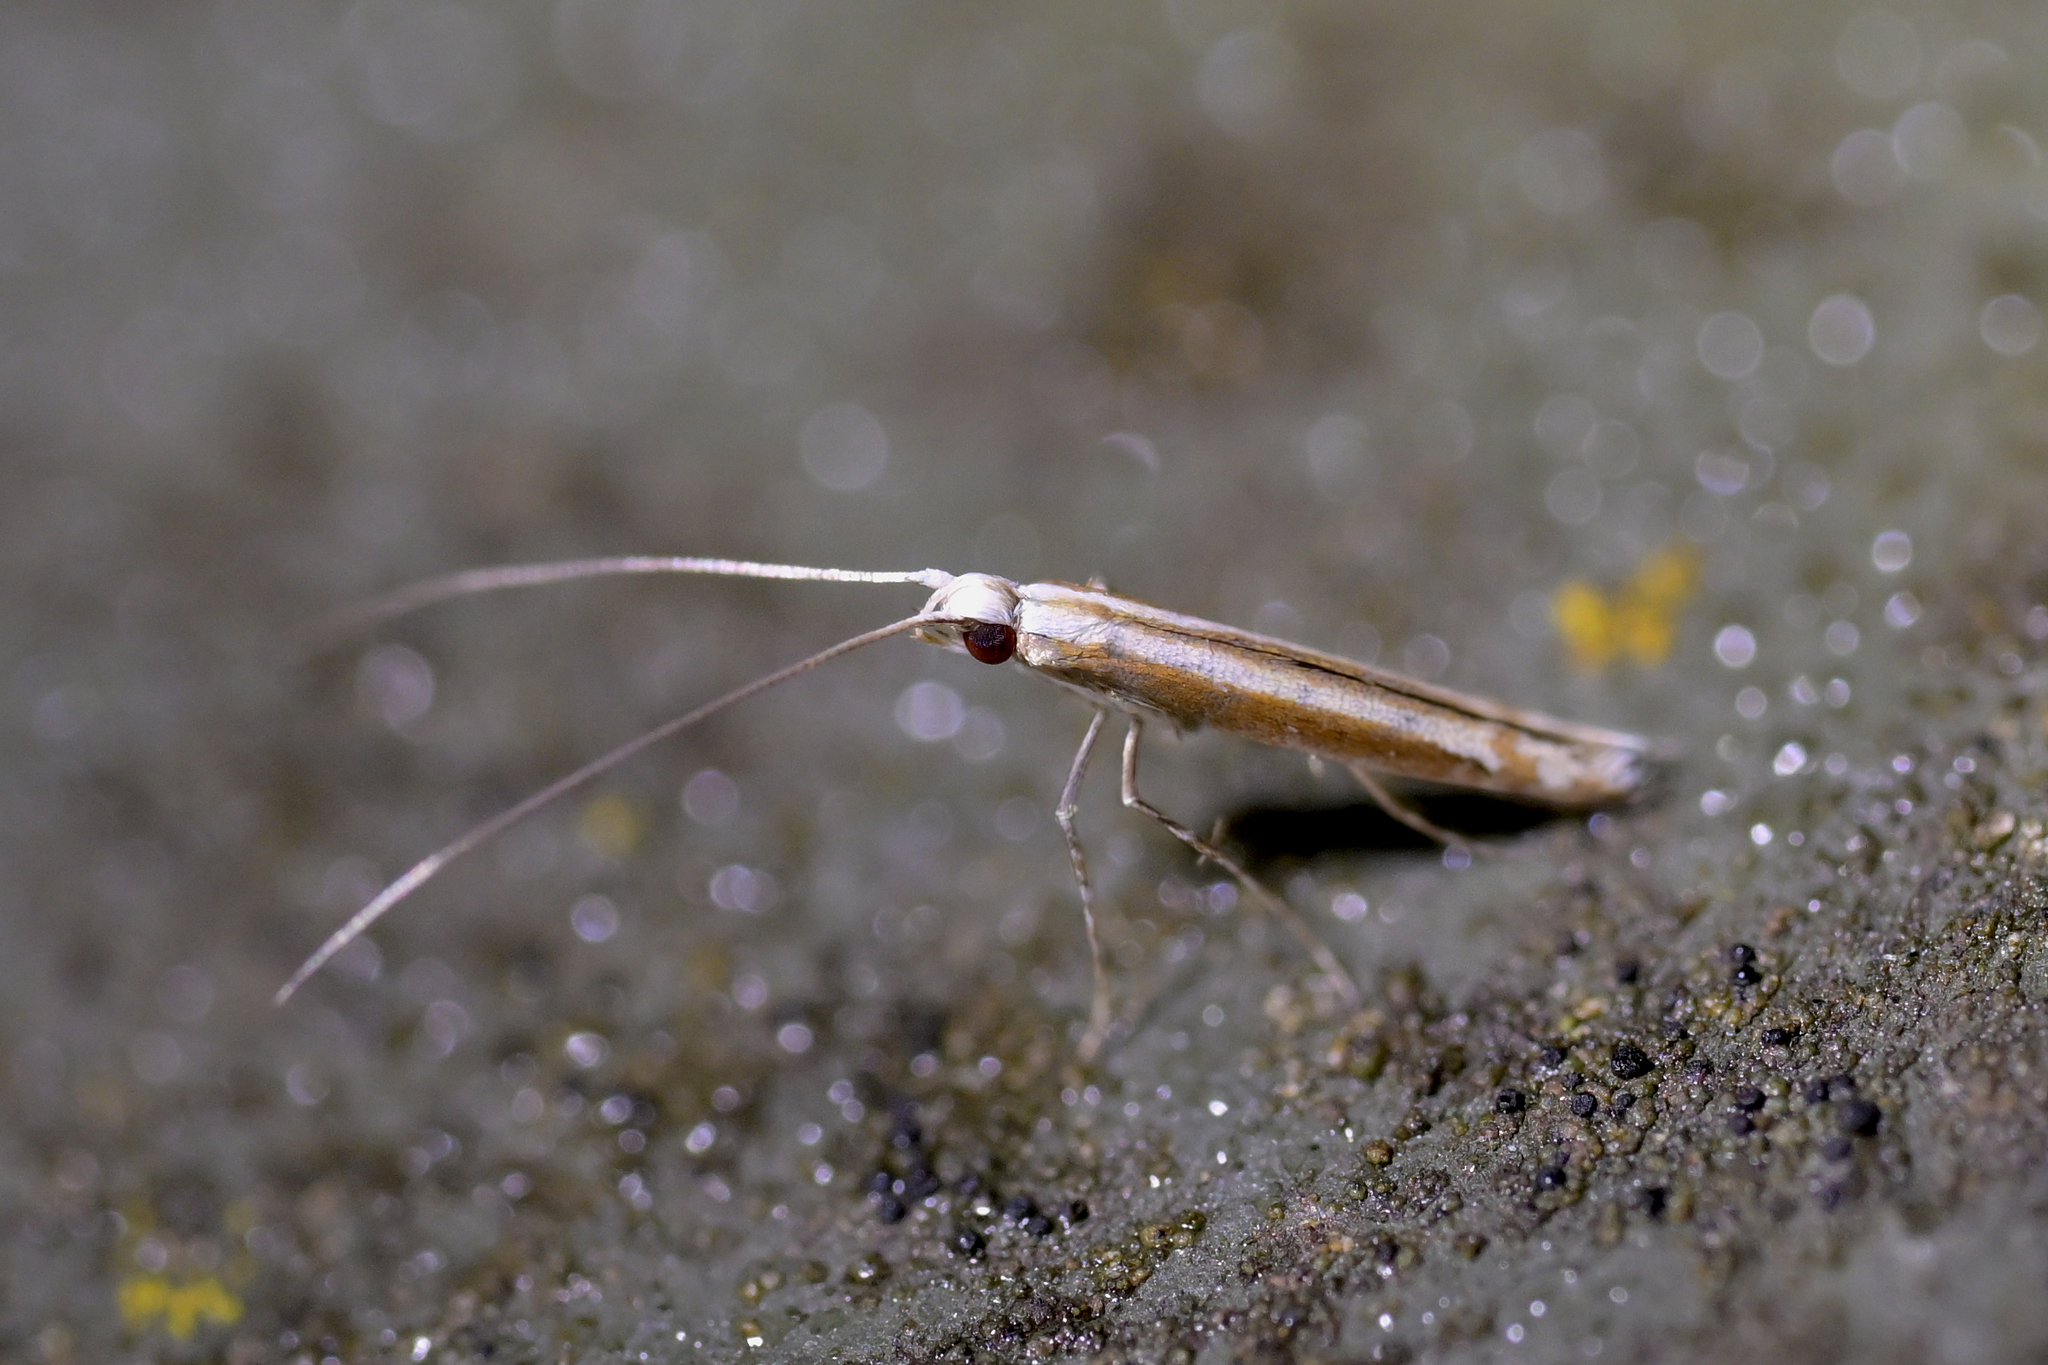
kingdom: Animalia
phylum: Arthropoda
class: Insecta
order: Lepidoptera
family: Gracillariidae
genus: Acrocercops
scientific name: Acrocercops laciniella
